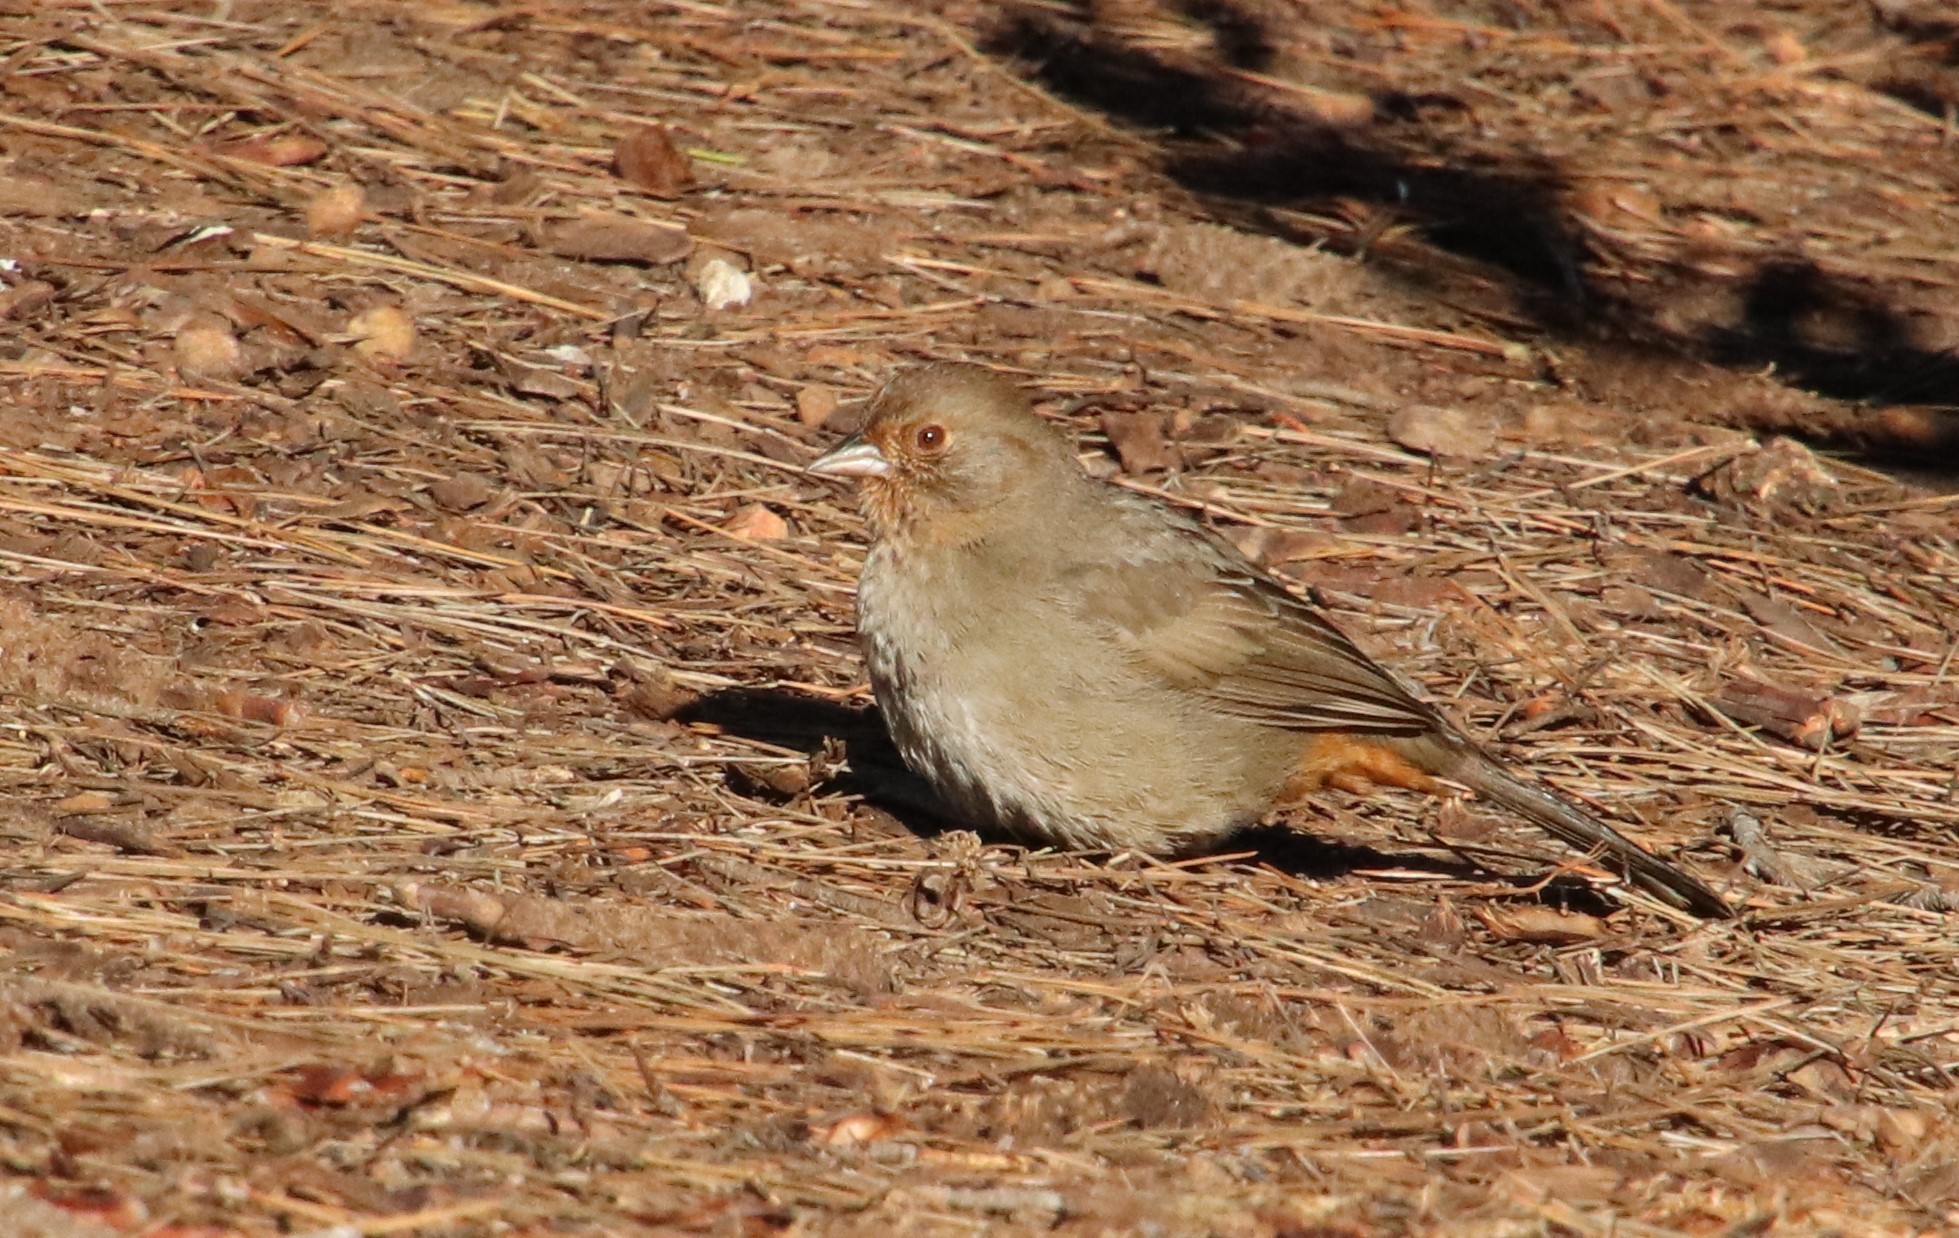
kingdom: Animalia
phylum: Chordata
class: Aves
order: Passeriformes
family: Passerellidae
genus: Melozone
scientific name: Melozone crissalis
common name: California towhee
